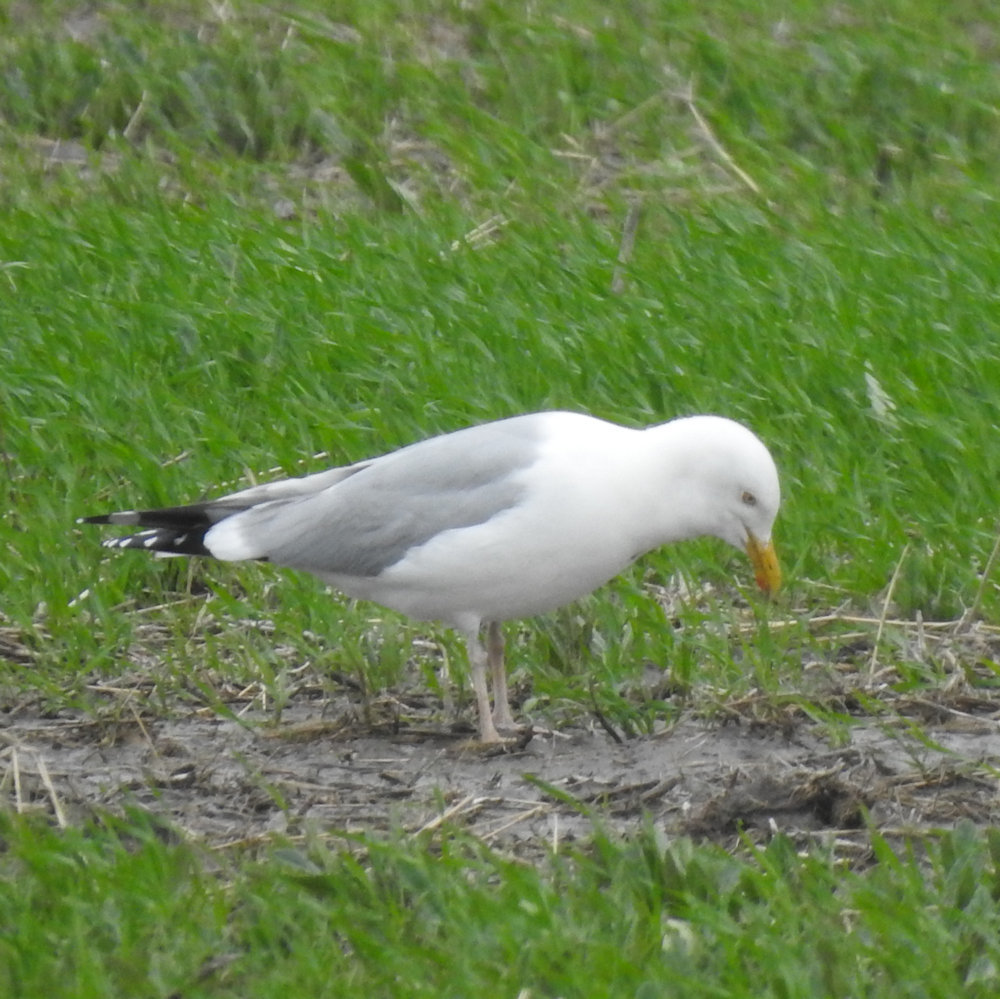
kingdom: Animalia
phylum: Chordata
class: Aves
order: Charadriiformes
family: Laridae
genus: Larus
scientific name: Larus argentatus
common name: Herring gull
